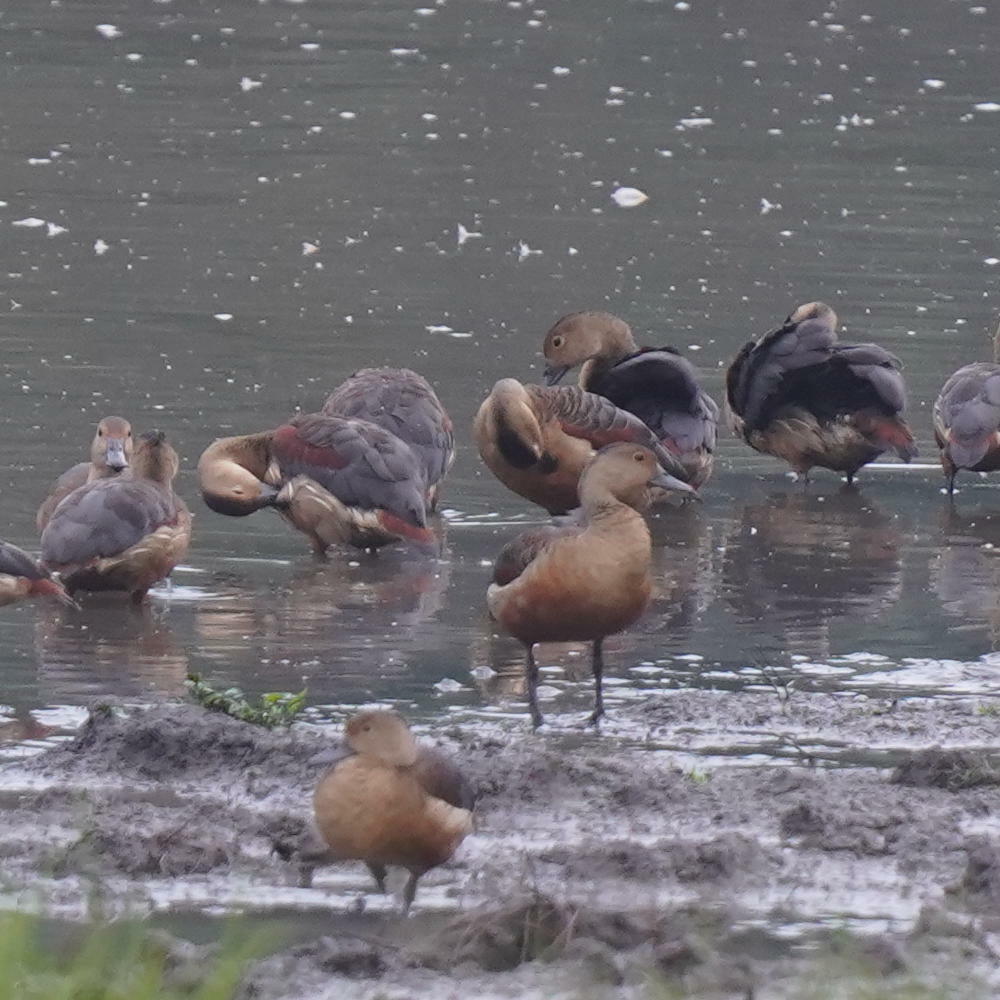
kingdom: Animalia
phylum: Chordata
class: Aves
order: Anseriformes
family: Anatidae
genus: Dendrocygna
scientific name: Dendrocygna javanica
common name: Lesser whistling-duck
